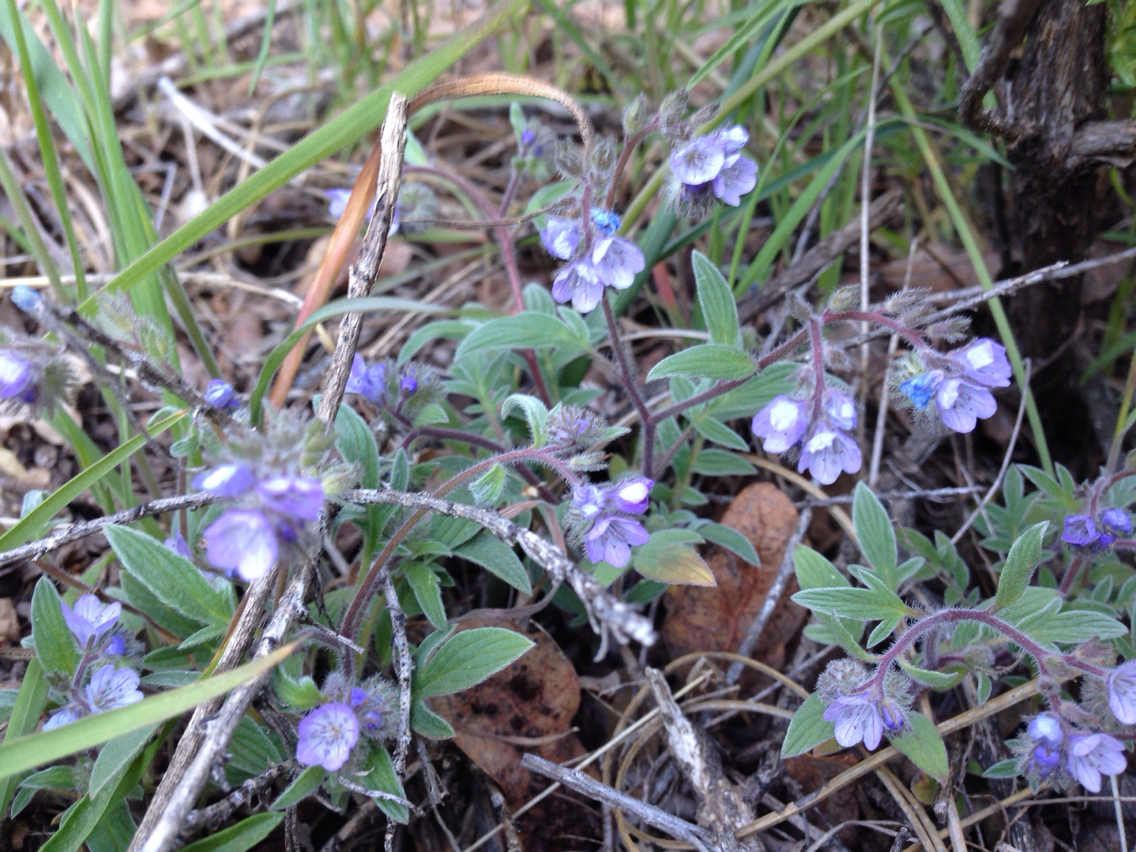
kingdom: Plantae
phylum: Tracheophyta
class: Magnoliopsida
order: Boraginales
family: Hydrophyllaceae
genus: Phacelia
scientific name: Phacelia breweri
